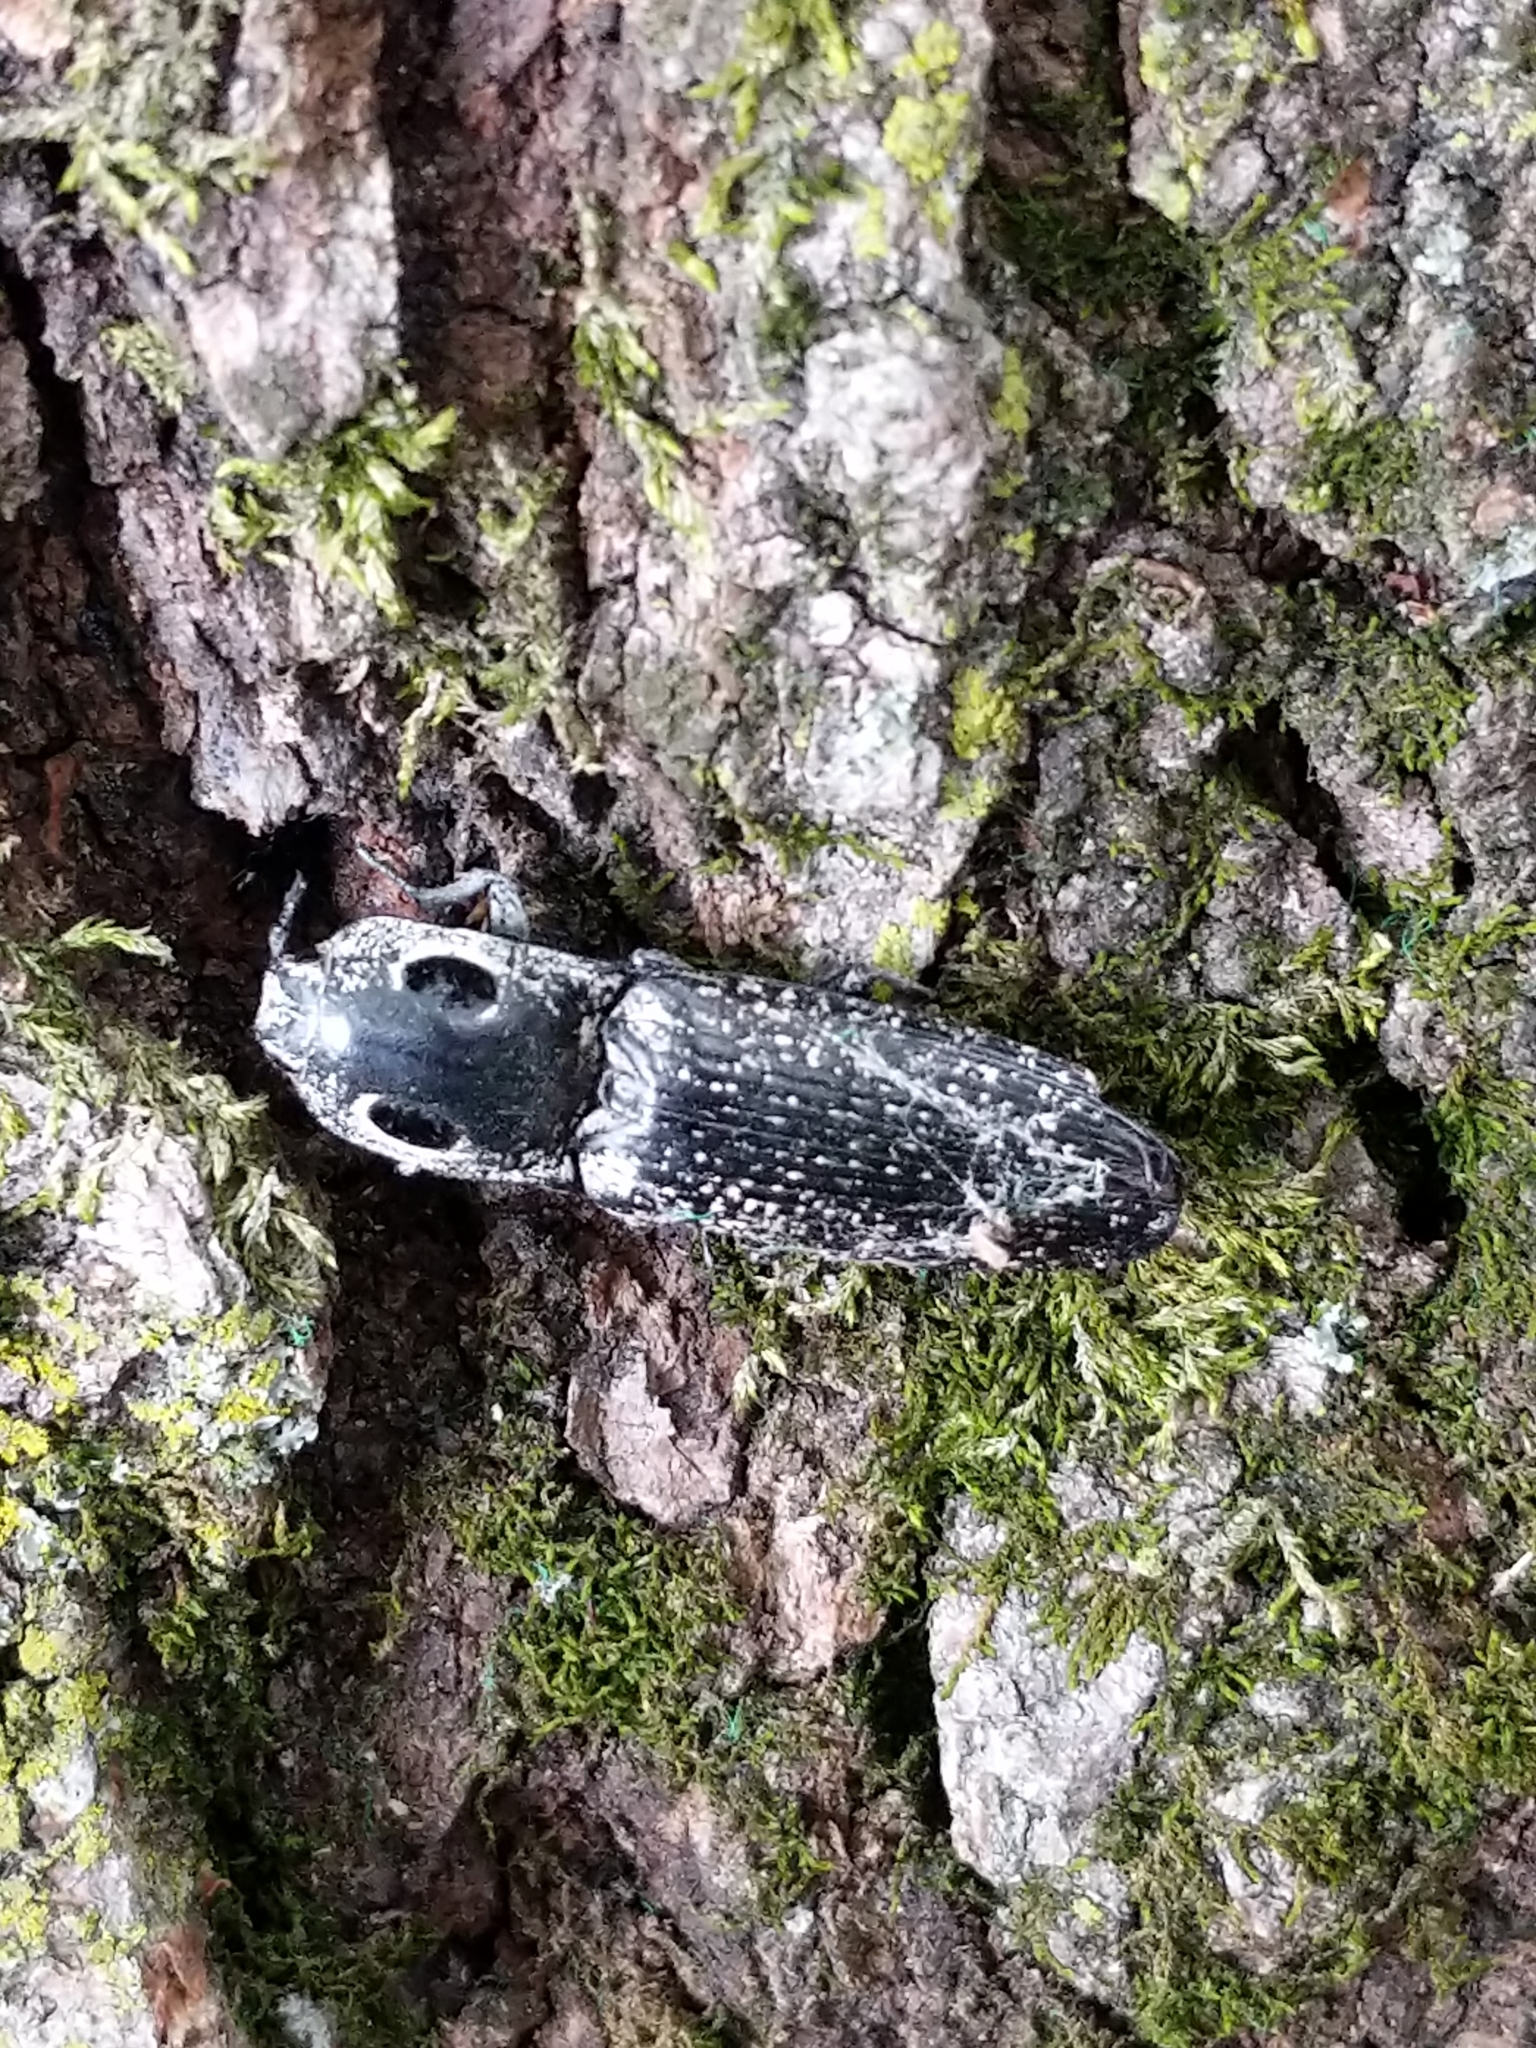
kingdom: Animalia
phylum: Arthropoda
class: Insecta
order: Coleoptera
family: Elateridae
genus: Alaus
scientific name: Alaus oculatus
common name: Eastern eyed click beetle
